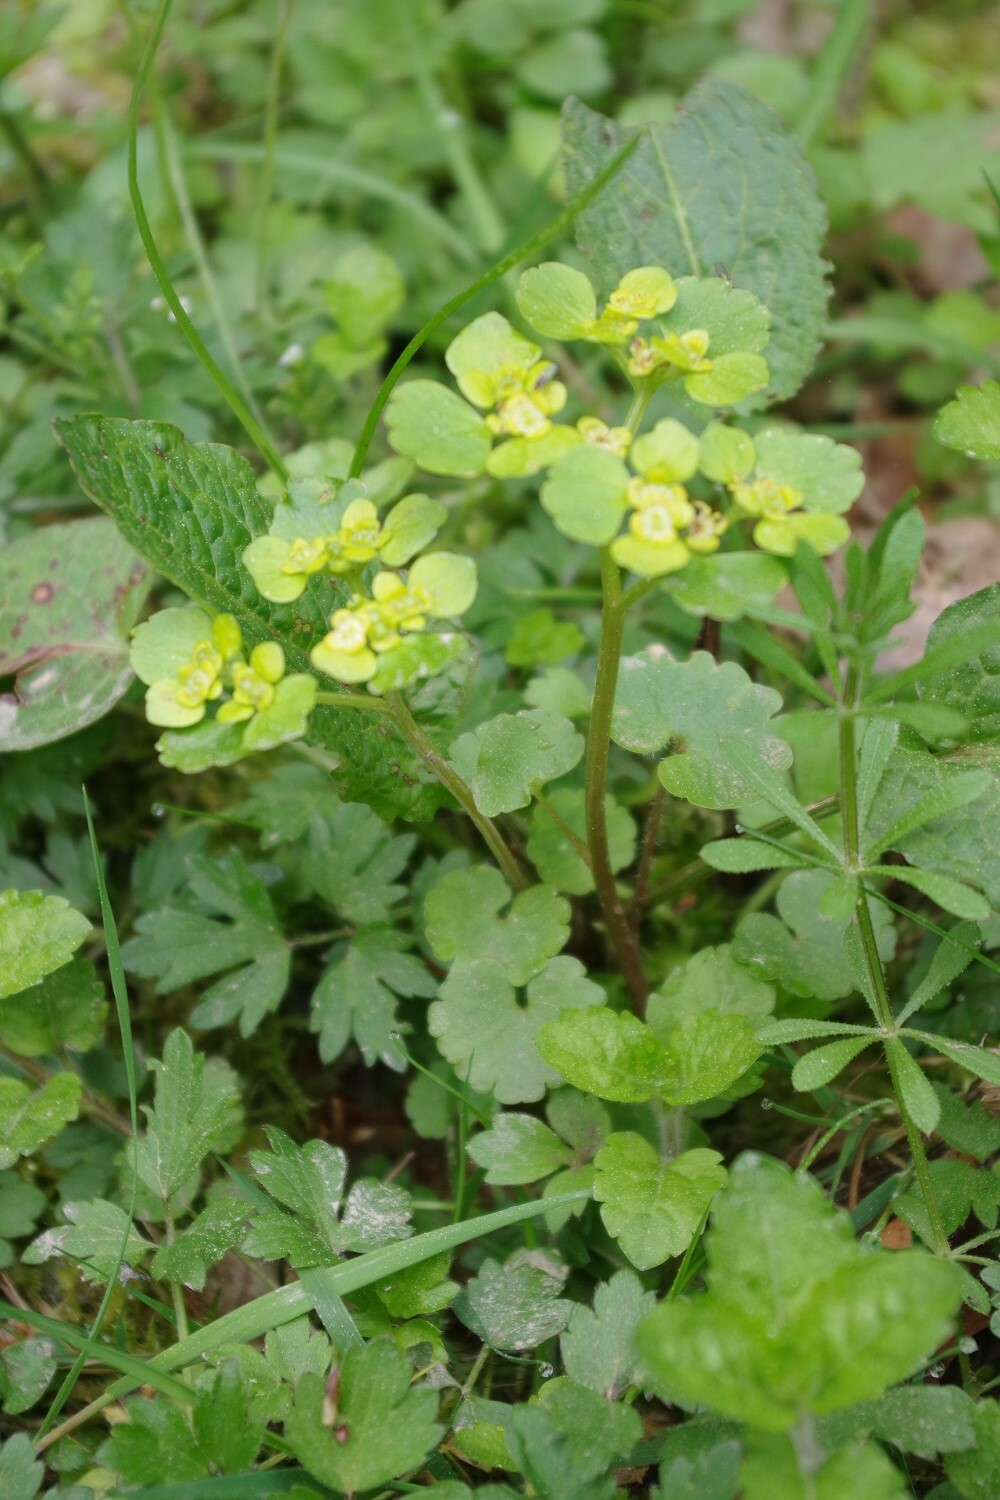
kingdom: Plantae
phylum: Tracheophyta
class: Magnoliopsida
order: Saxifragales
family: Saxifragaceae
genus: Chrysosplenium
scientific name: Chrysosplenium alternifolium
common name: Alternate-leaved golden-saxifrage
